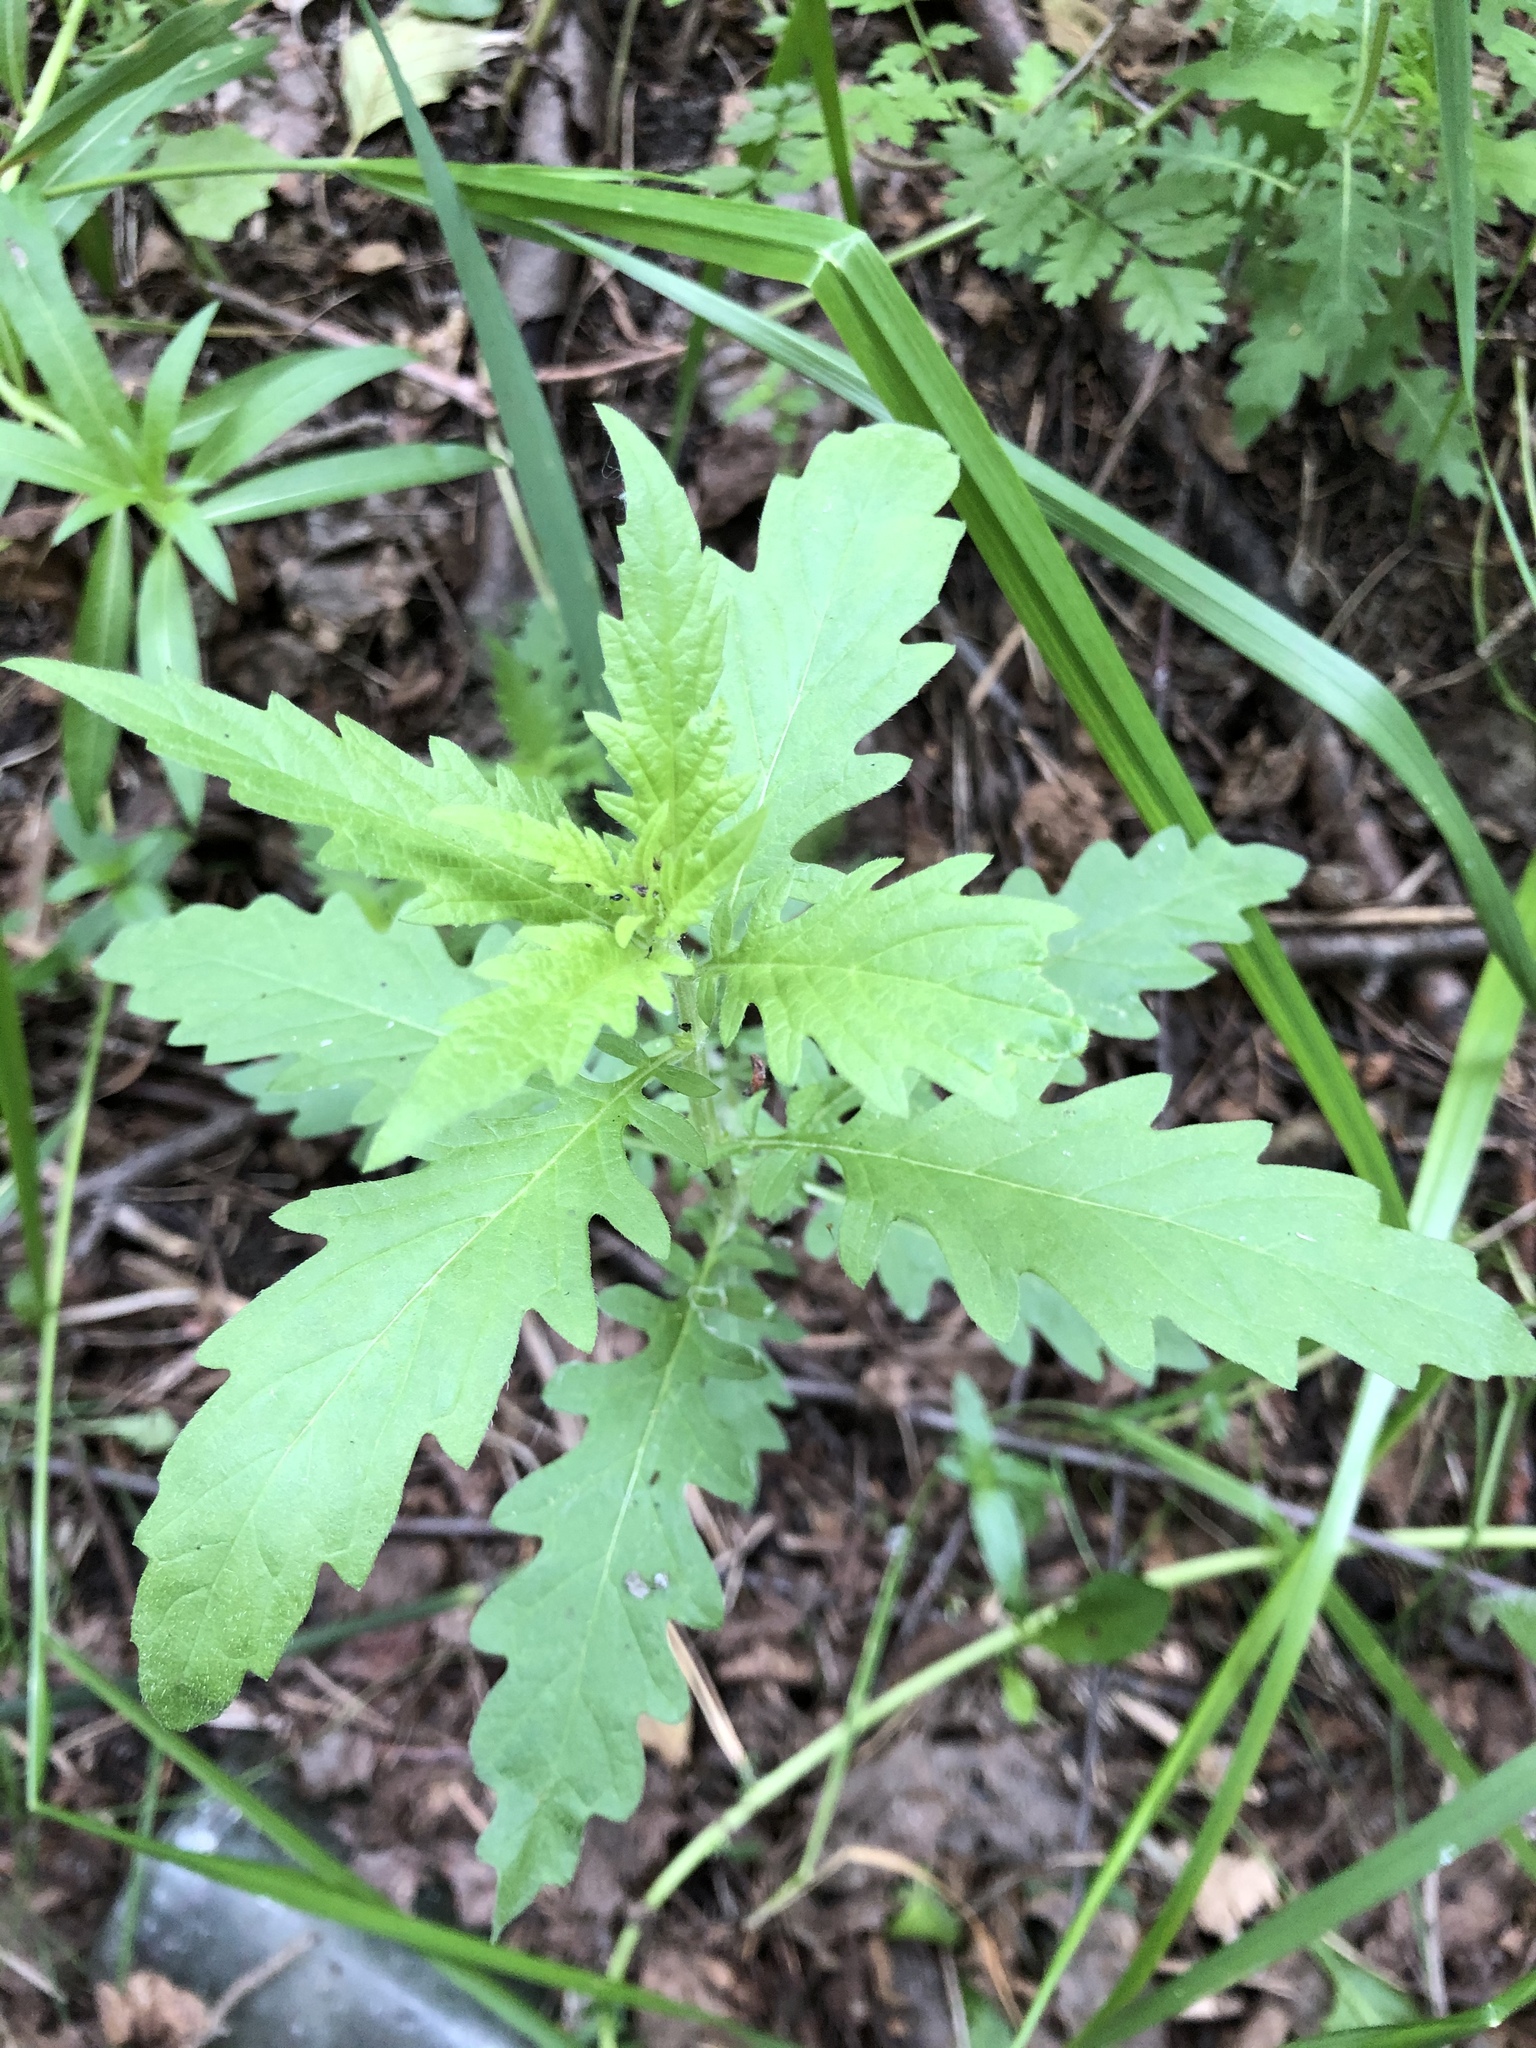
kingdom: Plantae
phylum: Tracheophyta
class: Magnoliopsida
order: Lamiales
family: Lamiaceae
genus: Lycopus
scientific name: Lycopus europaeus
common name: European bugleweed
